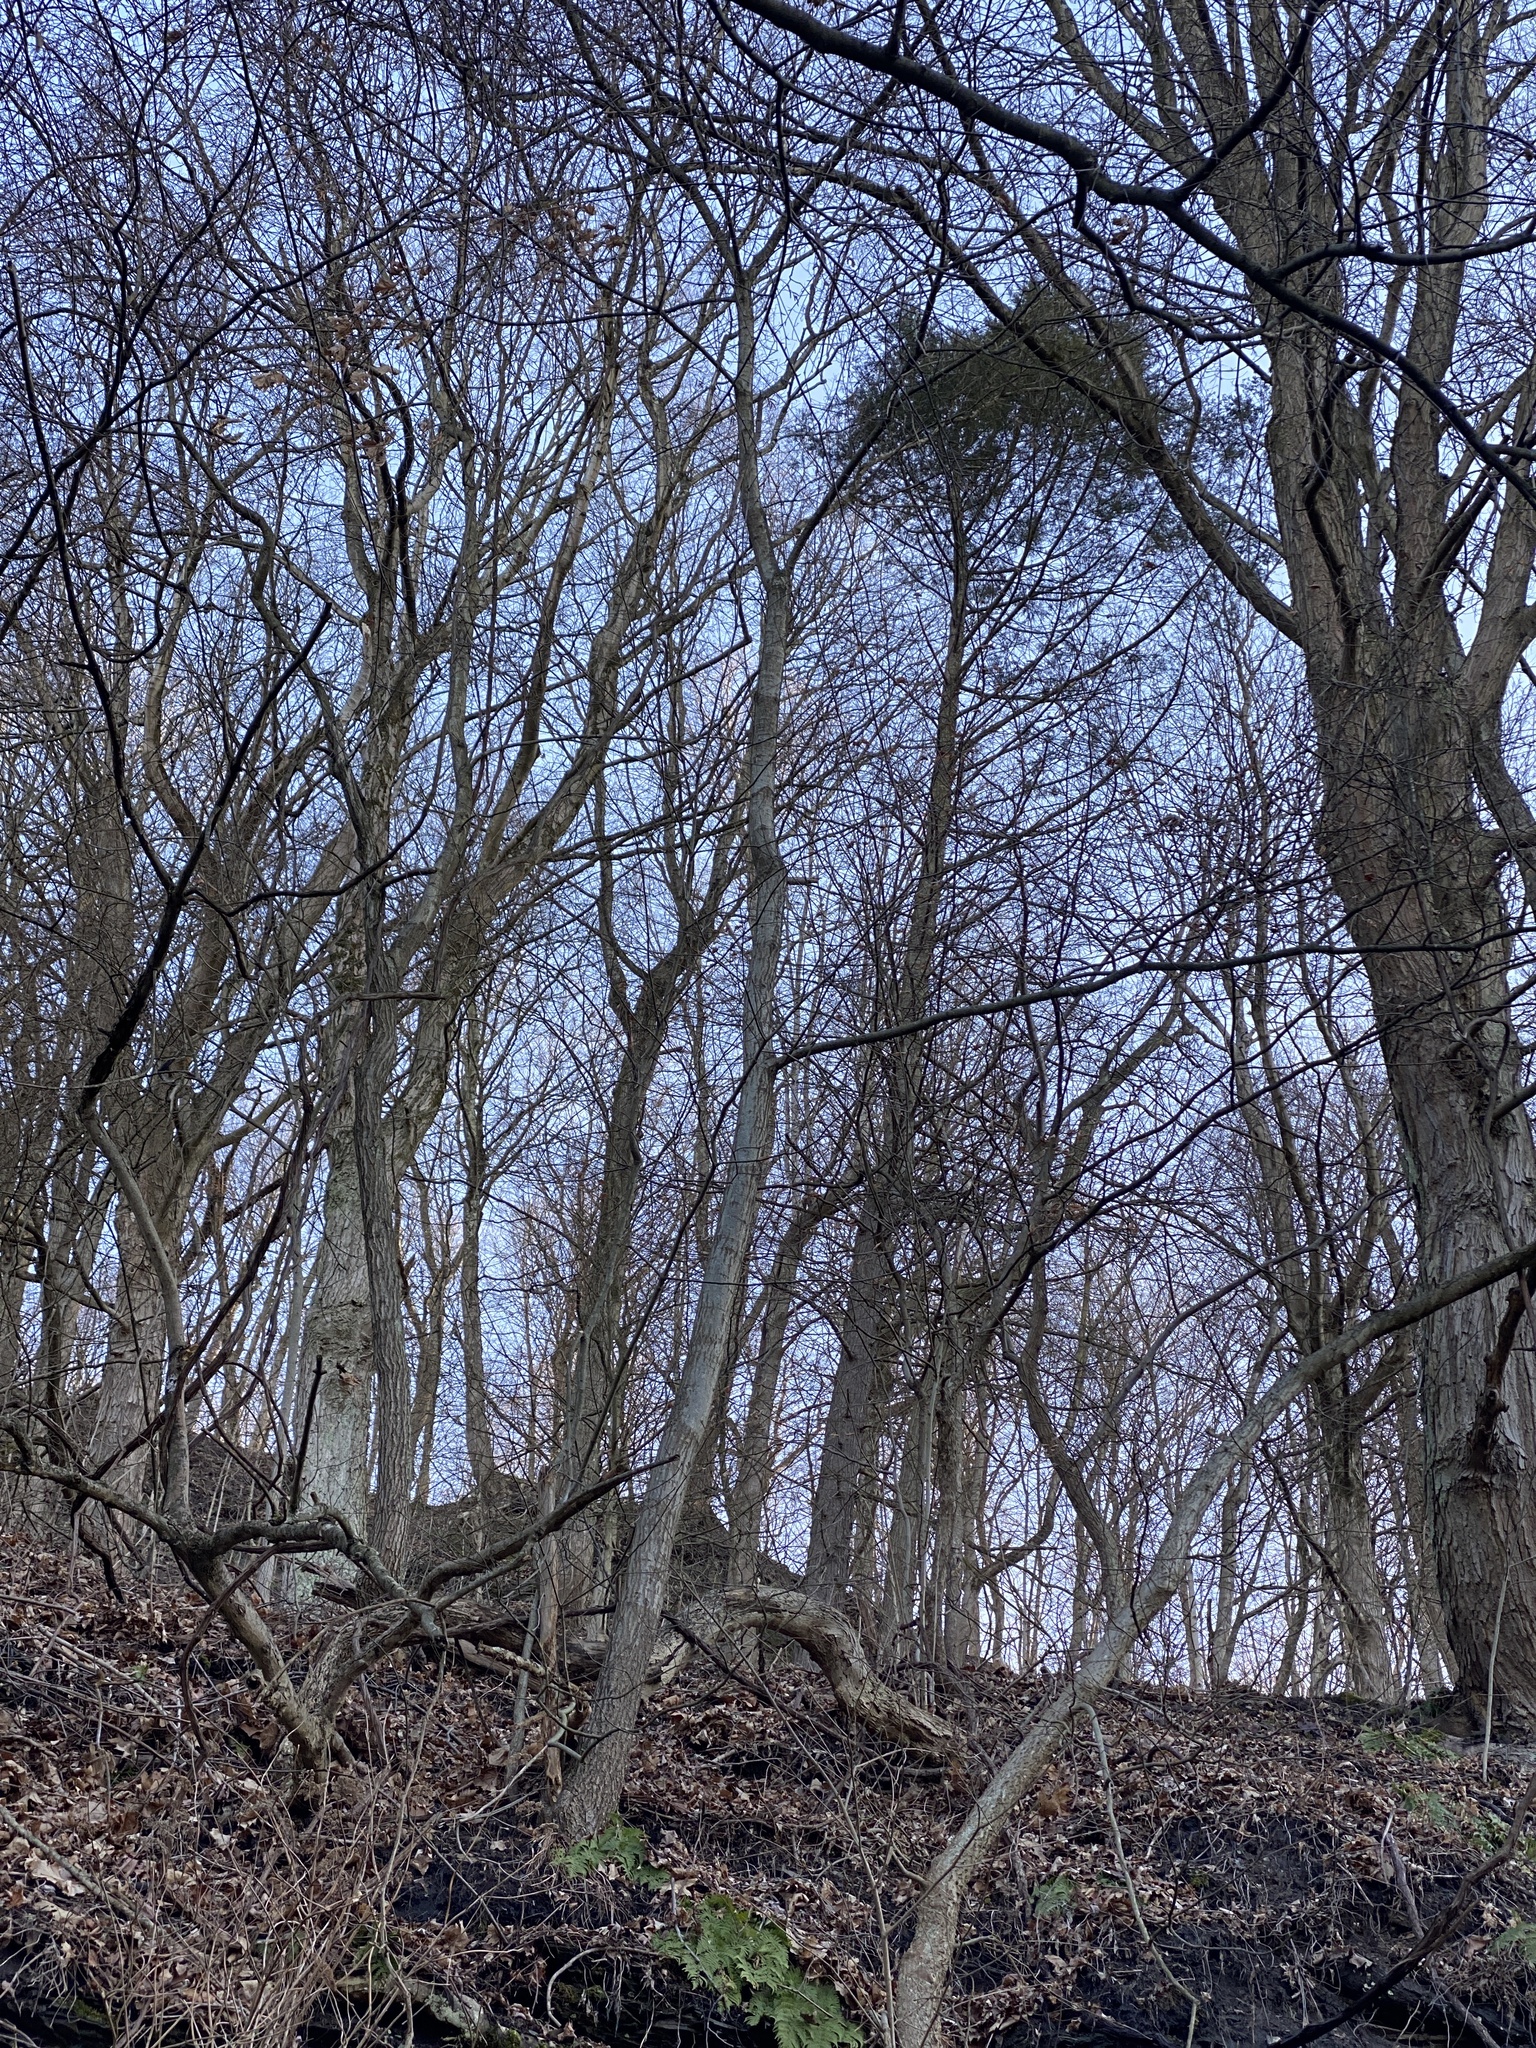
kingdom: Plantae
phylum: Tracheophyta
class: Pinopsida
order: Pinales
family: Pinaceae
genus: Tsuga
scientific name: Tsuga canadensis
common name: Eastern hemlock
